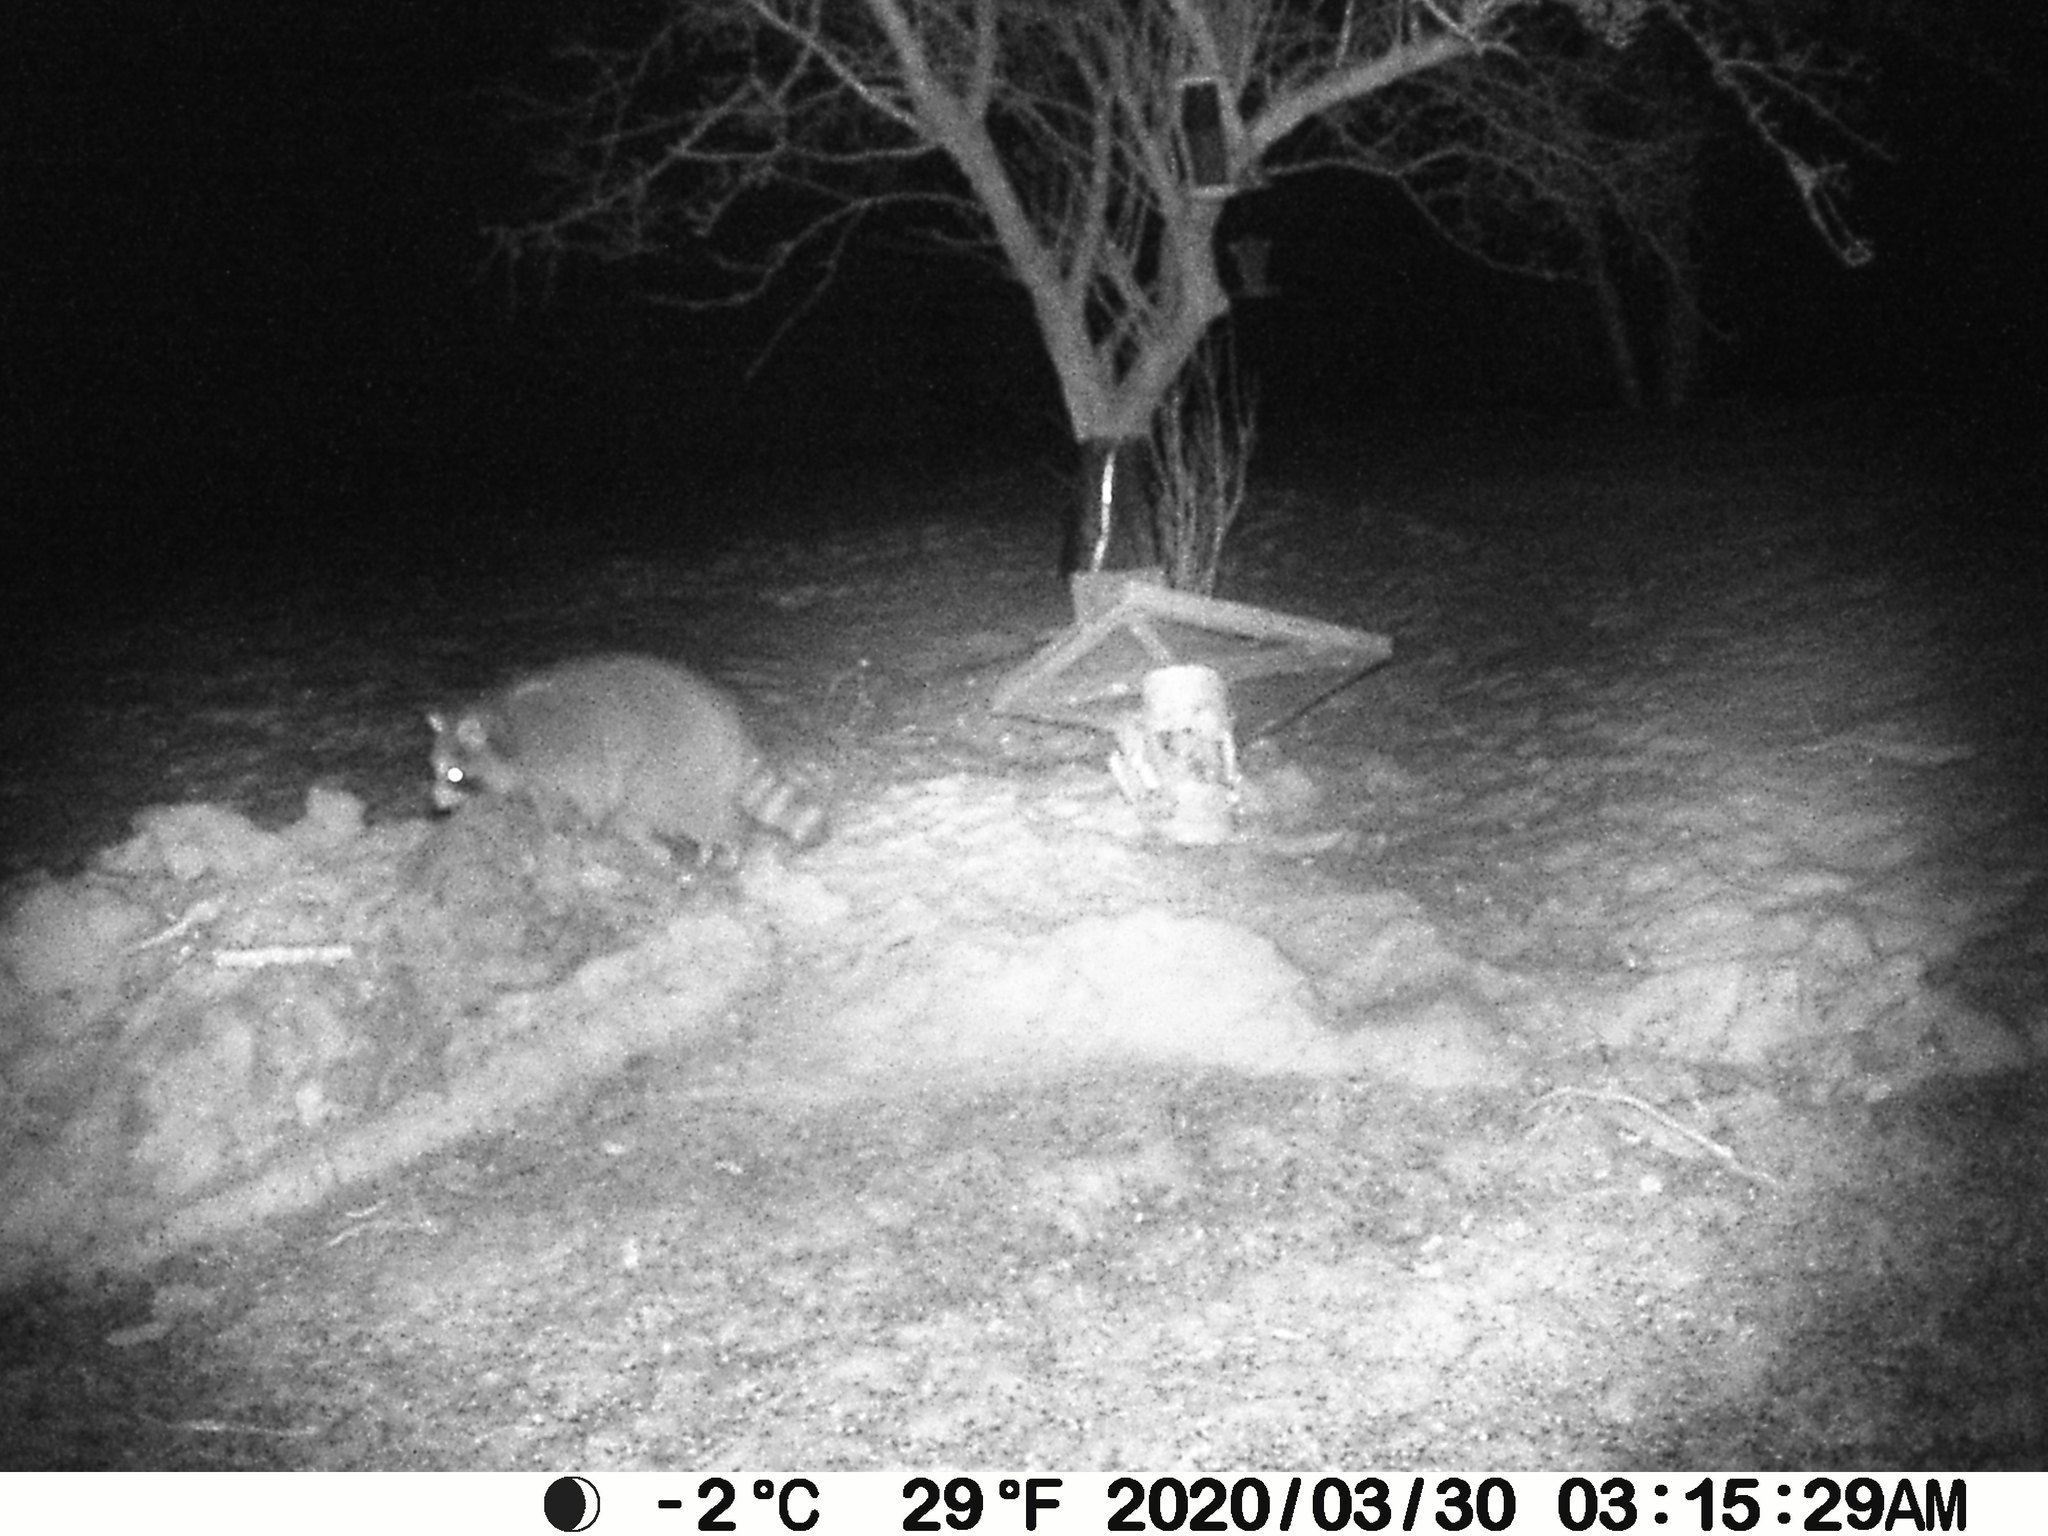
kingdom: Animalia
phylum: Chordata
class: Mammalia
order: Carnivora
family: Procyonidae
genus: Procyon
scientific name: Procyon lotor
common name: Raccoon
